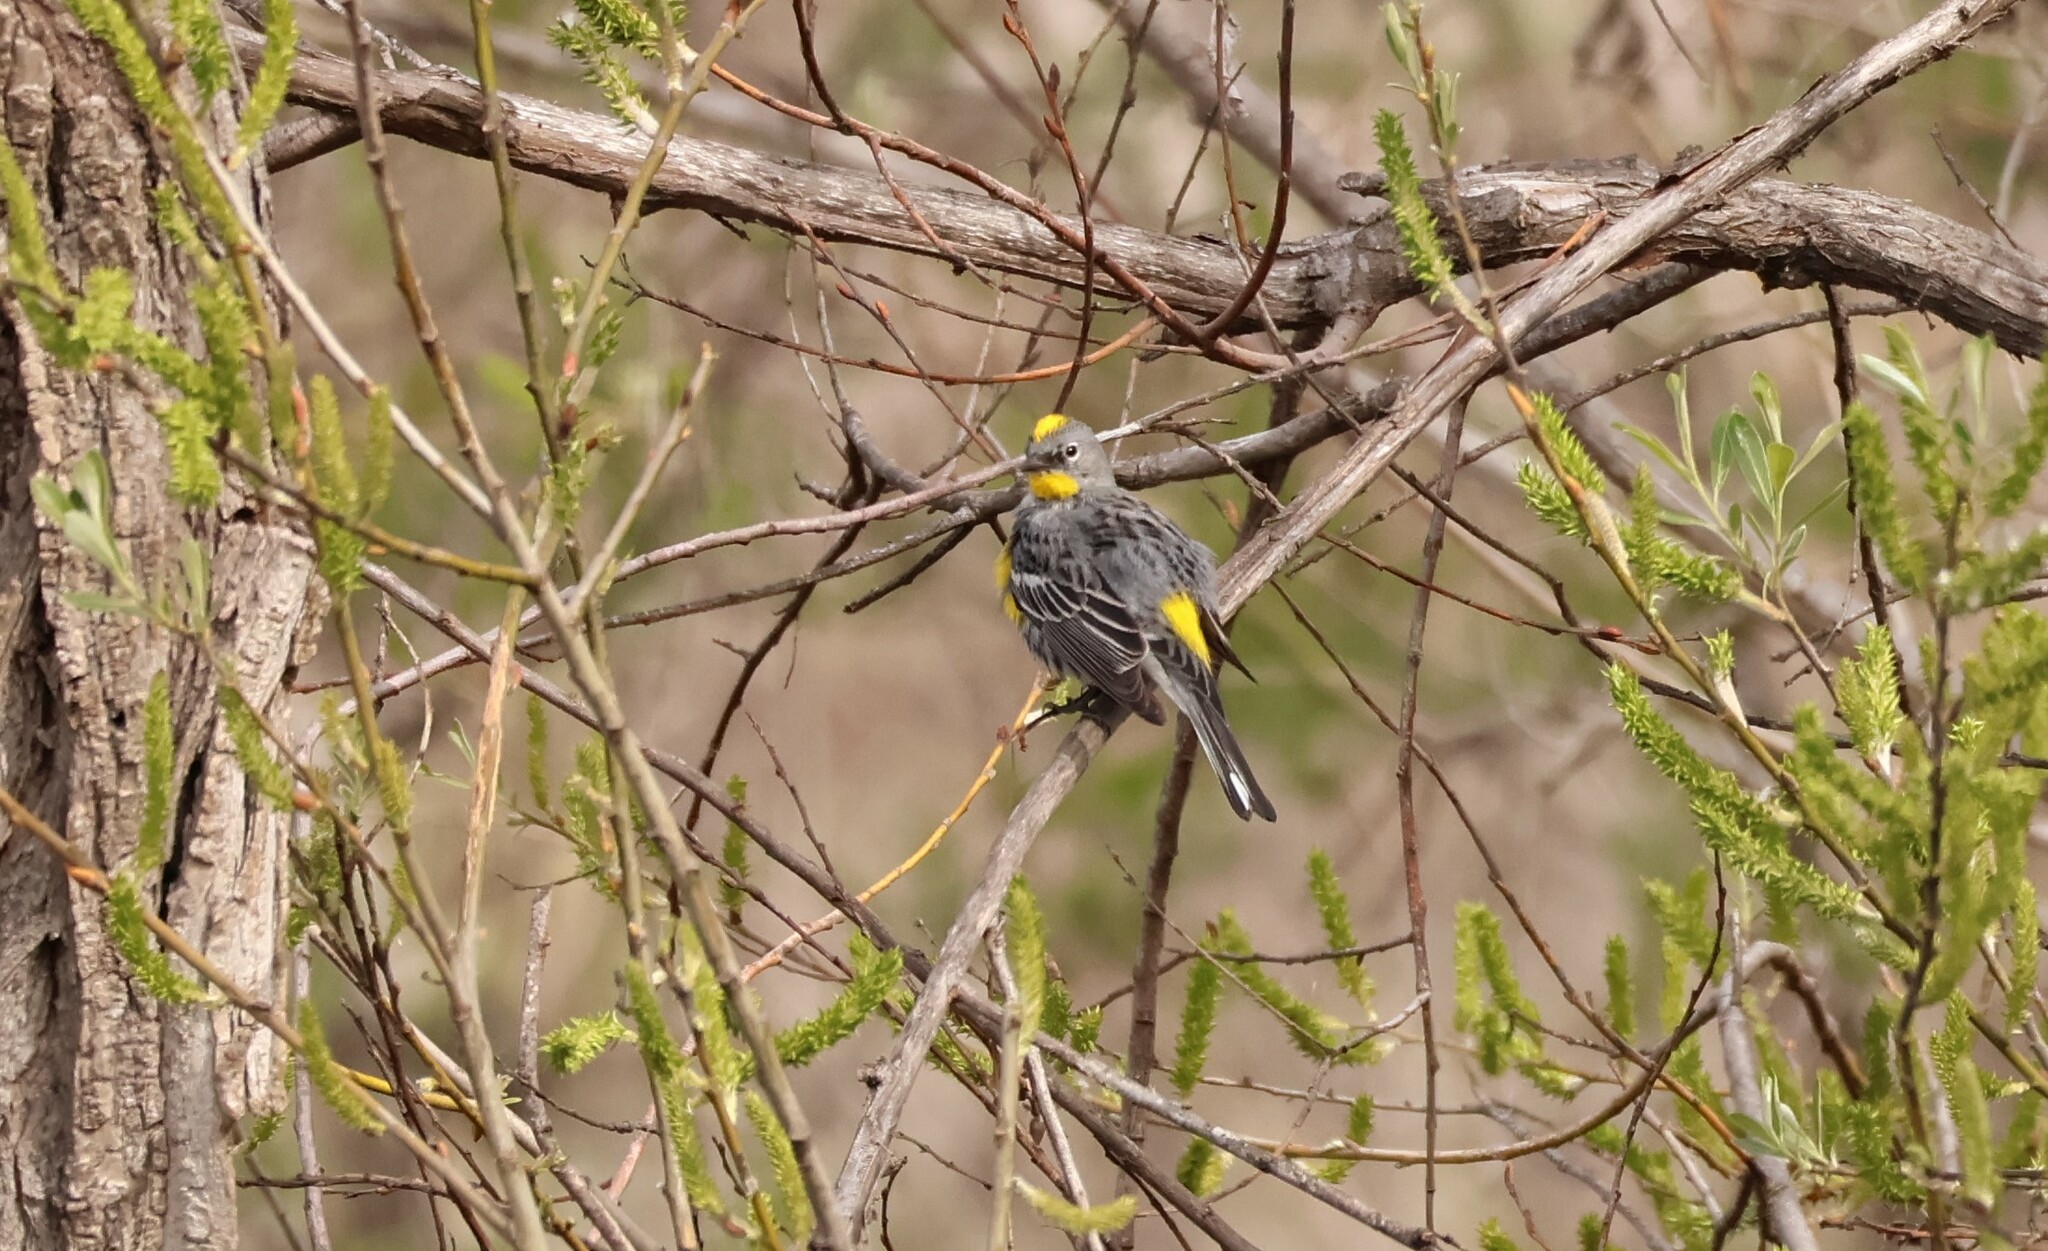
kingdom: Animalia
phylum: Chordata
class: Aves
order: Passeriformes
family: Parulidae
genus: Setophaga
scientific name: Setophaga auduboni
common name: Audubon's warbler
